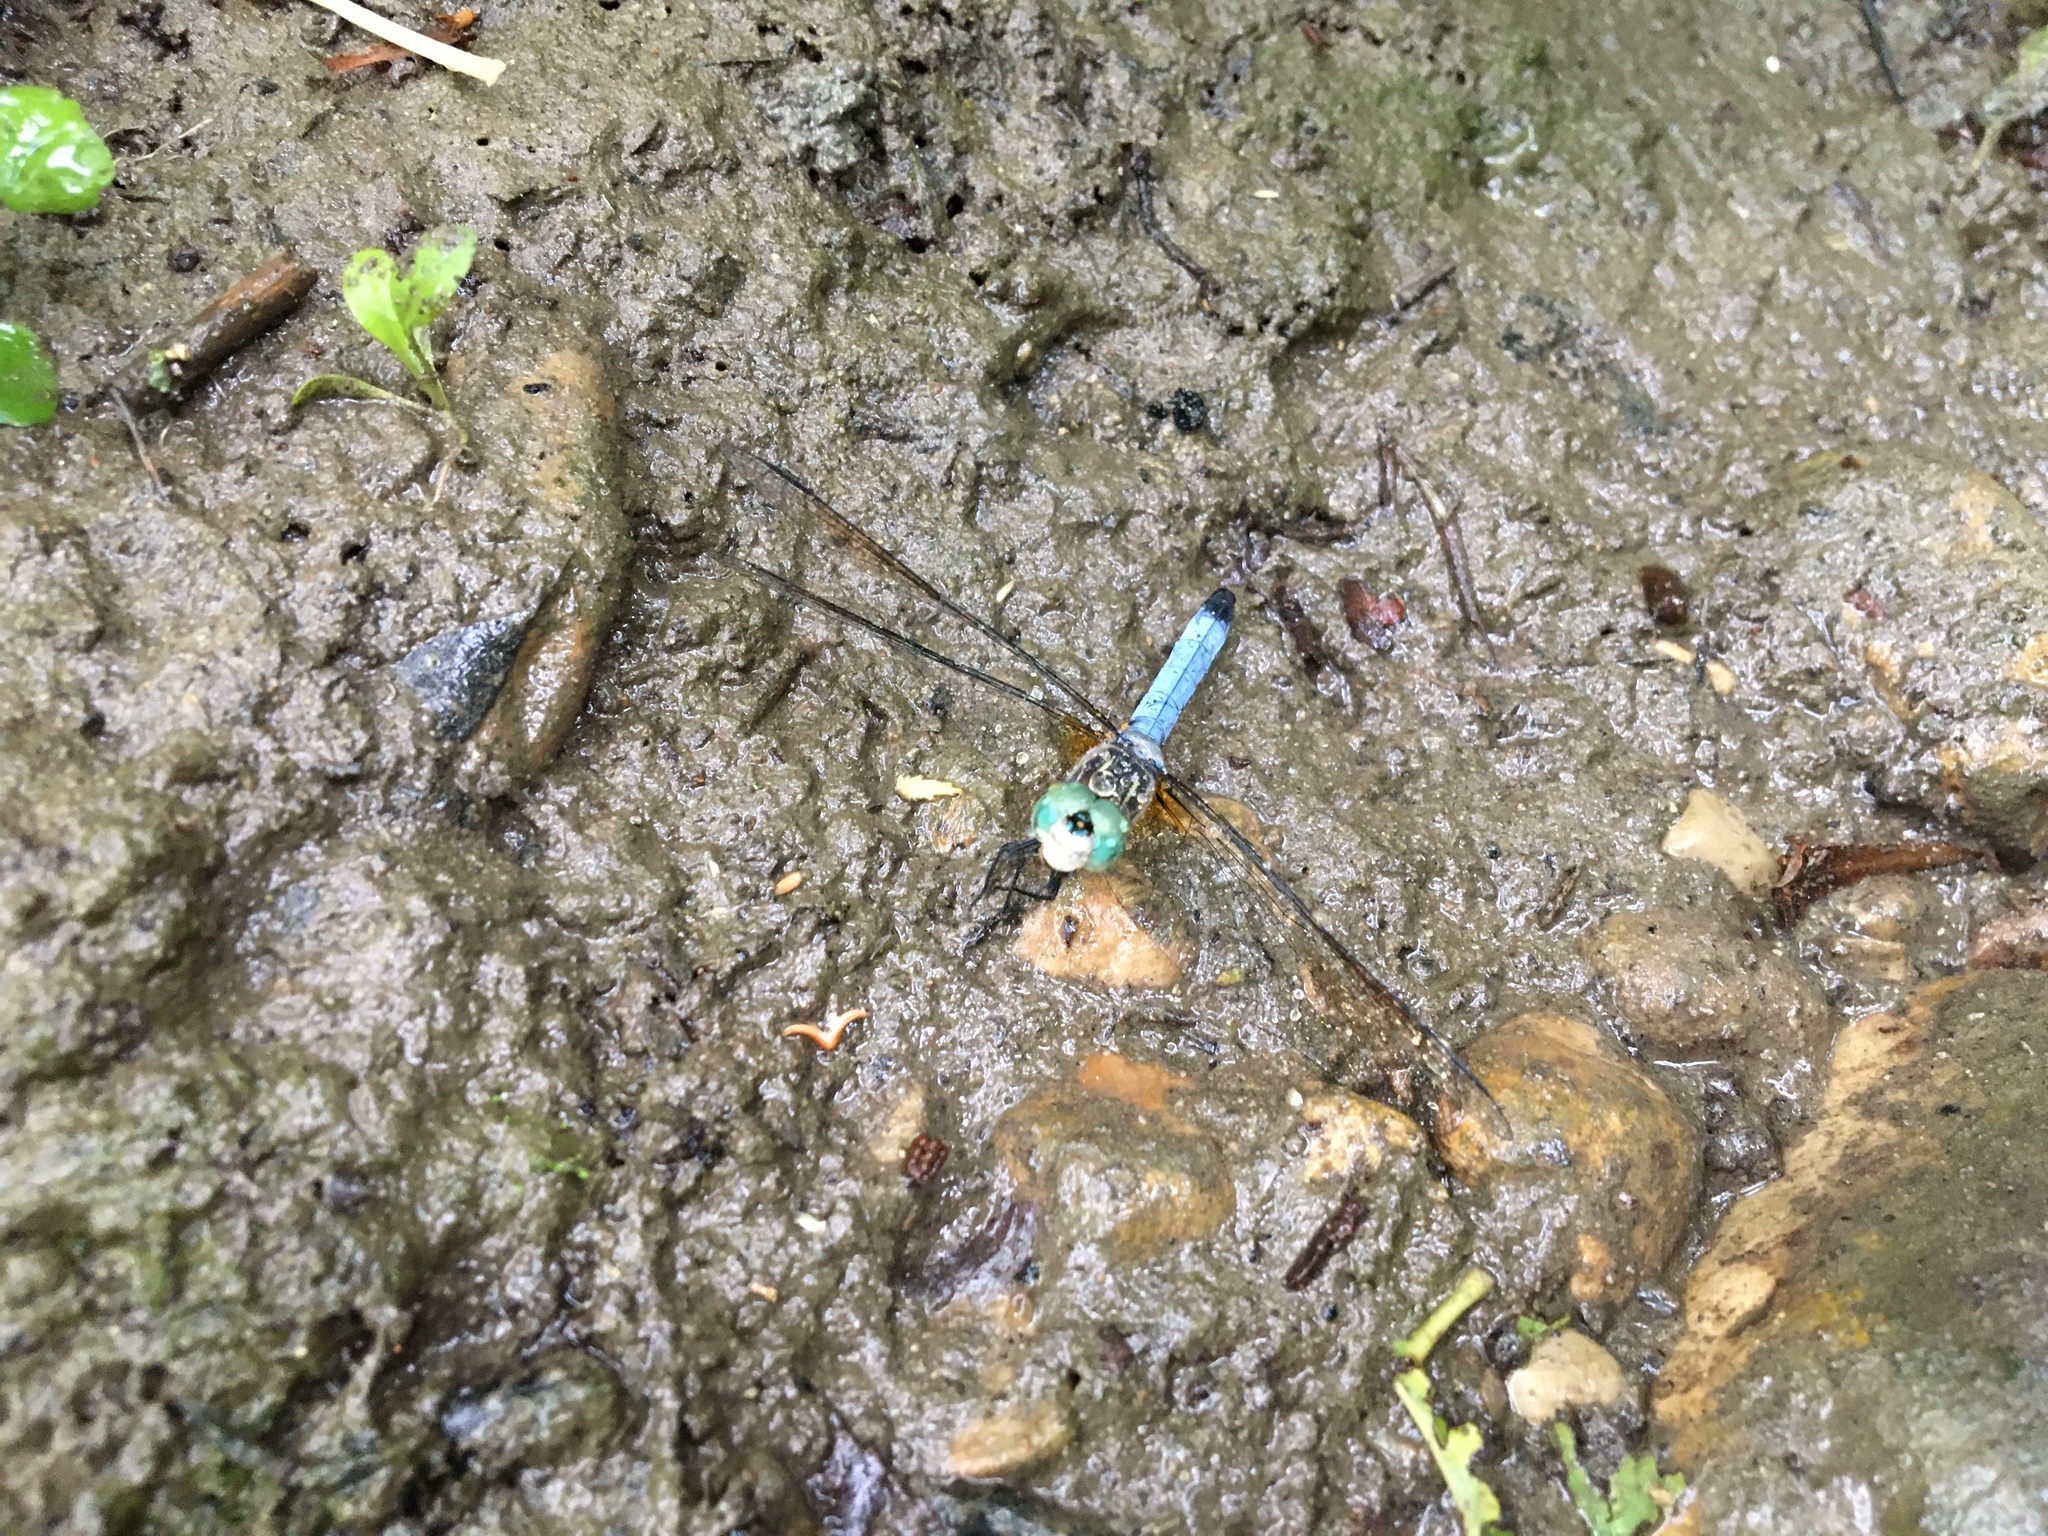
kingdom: Animalia
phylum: Arthropoda
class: Insecta
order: Odonata
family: Libellulidae
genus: Pachydiplax
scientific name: Pachydiplax longipennis
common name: Blue dasher
